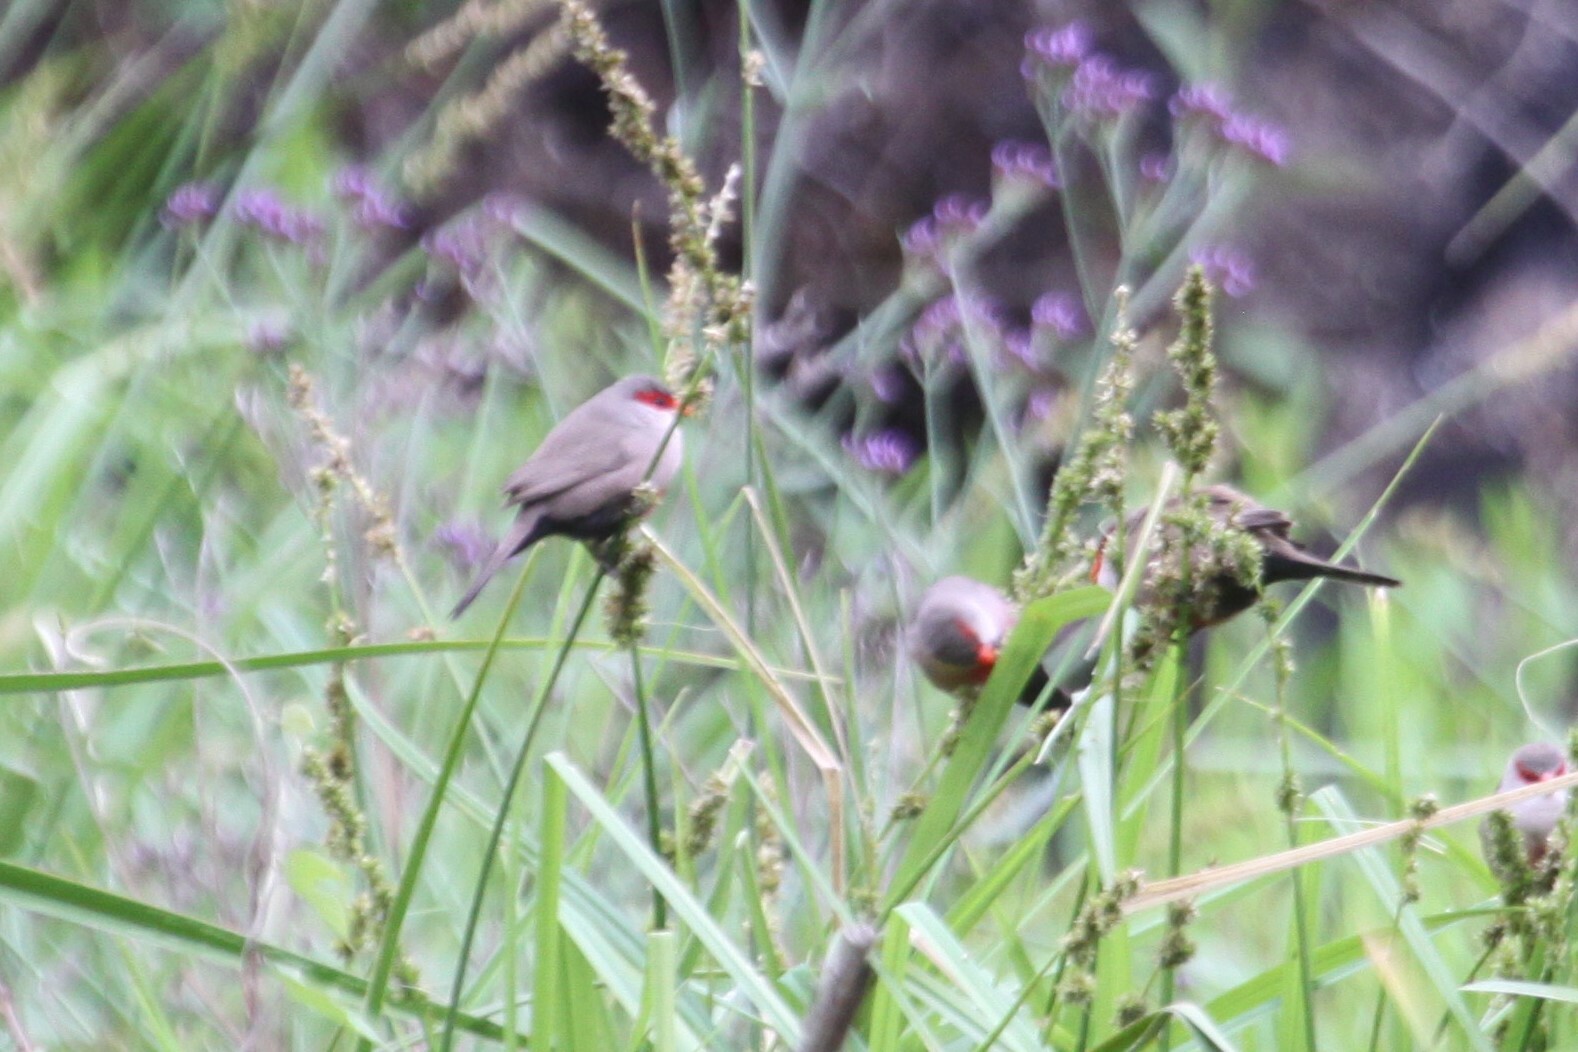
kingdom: Animalia
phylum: Chordata
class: Aves
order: Passeriformes
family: Estrildidae
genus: Estrilda
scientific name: Estrilda astrild
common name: Common waxbill
